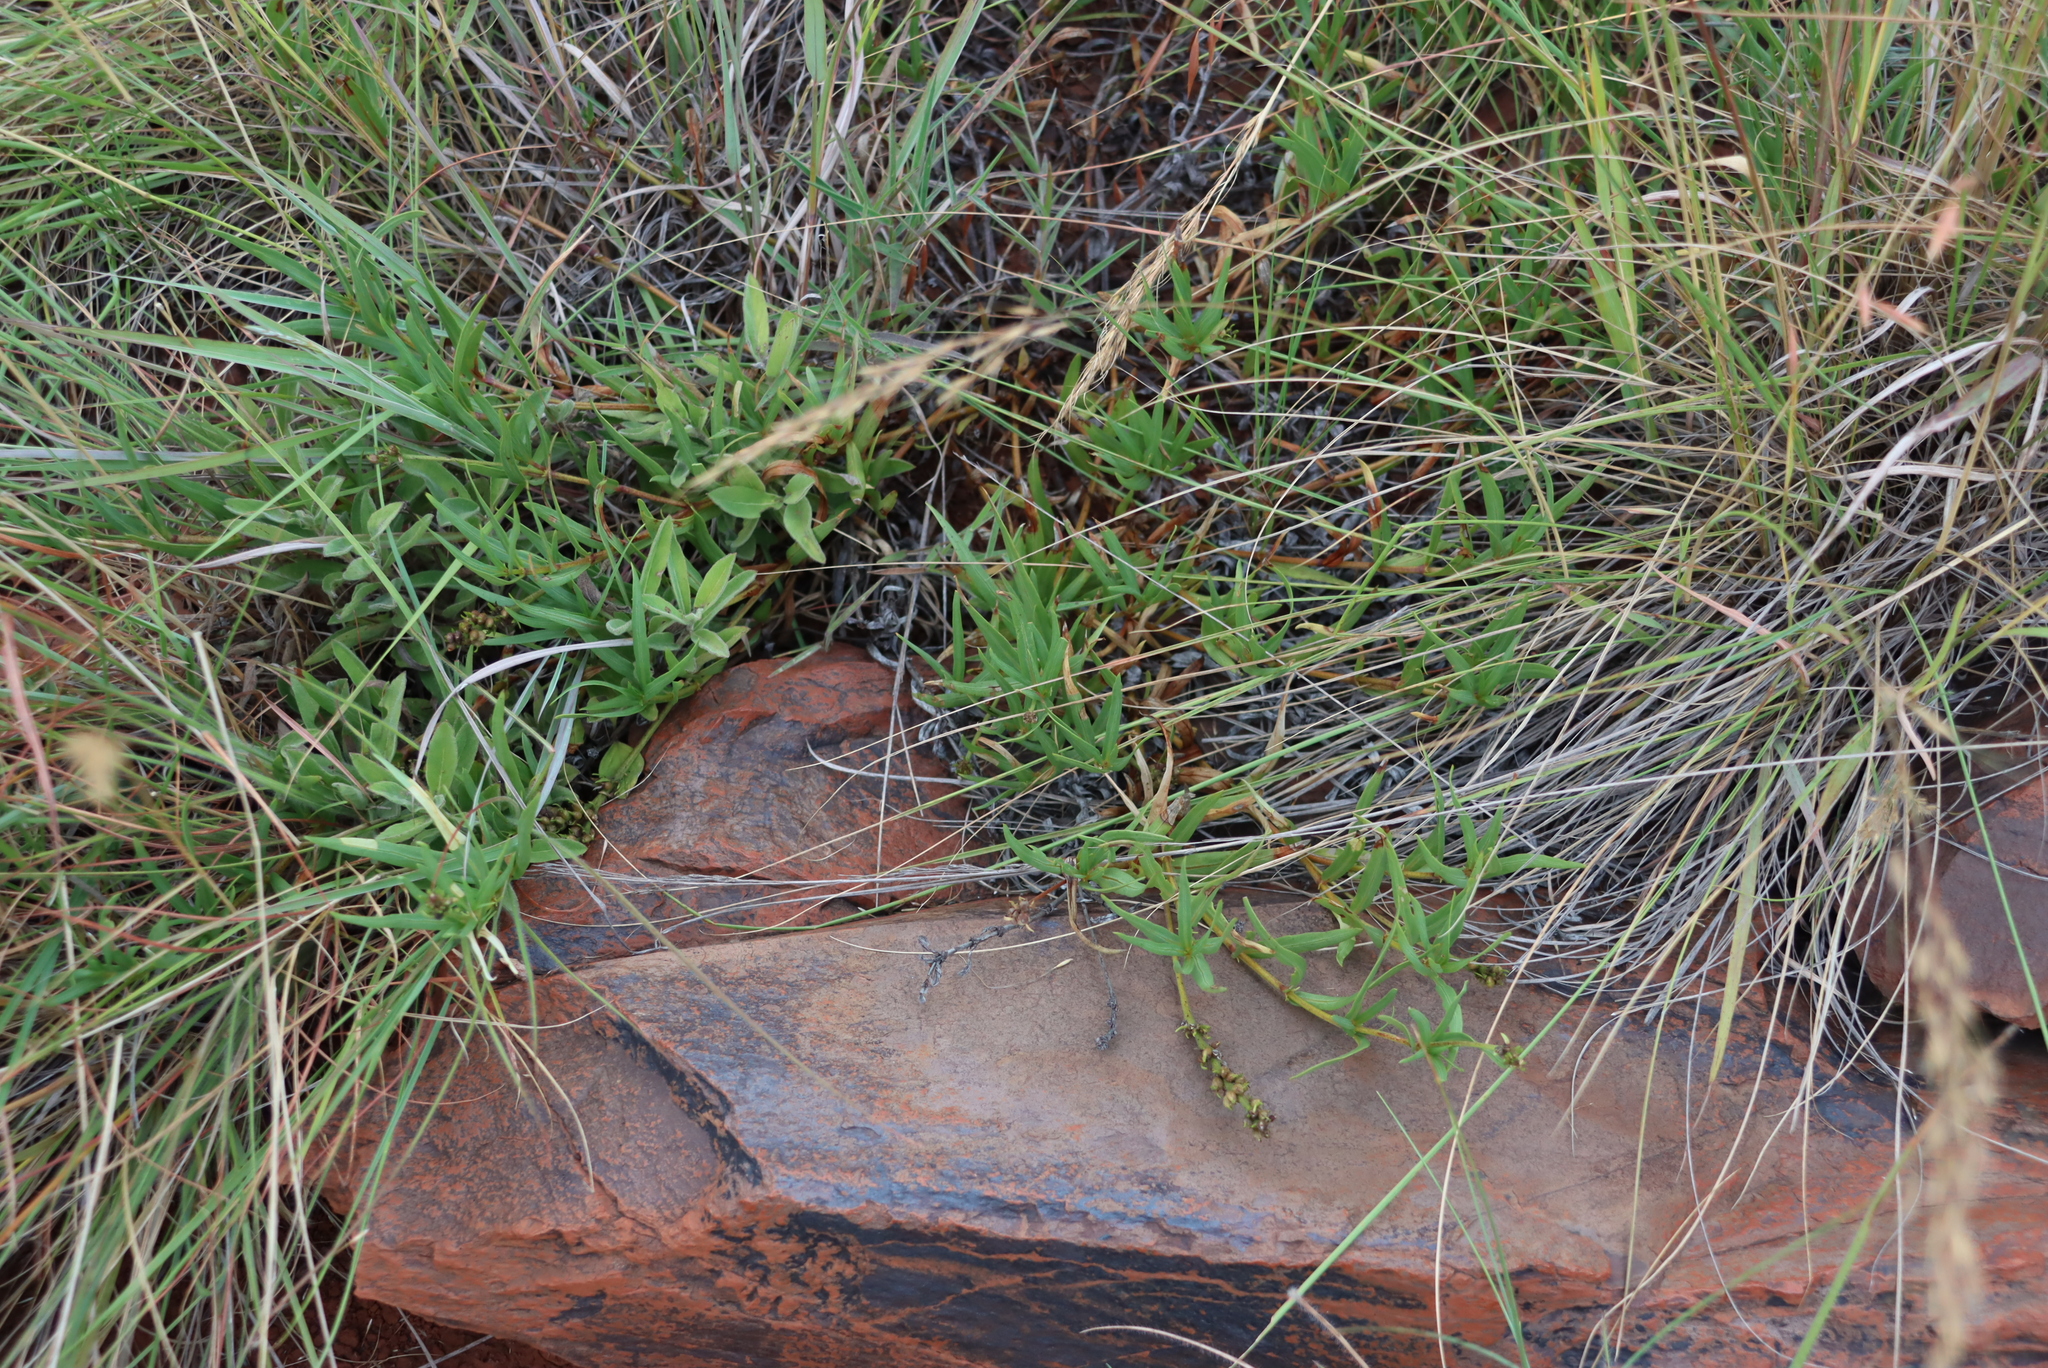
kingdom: Plantae
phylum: Tracheophyta
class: Magnoliopsida
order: Gentianales
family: Rubiaceae
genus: Pentanisia
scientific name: Pentanisia angustifolia
